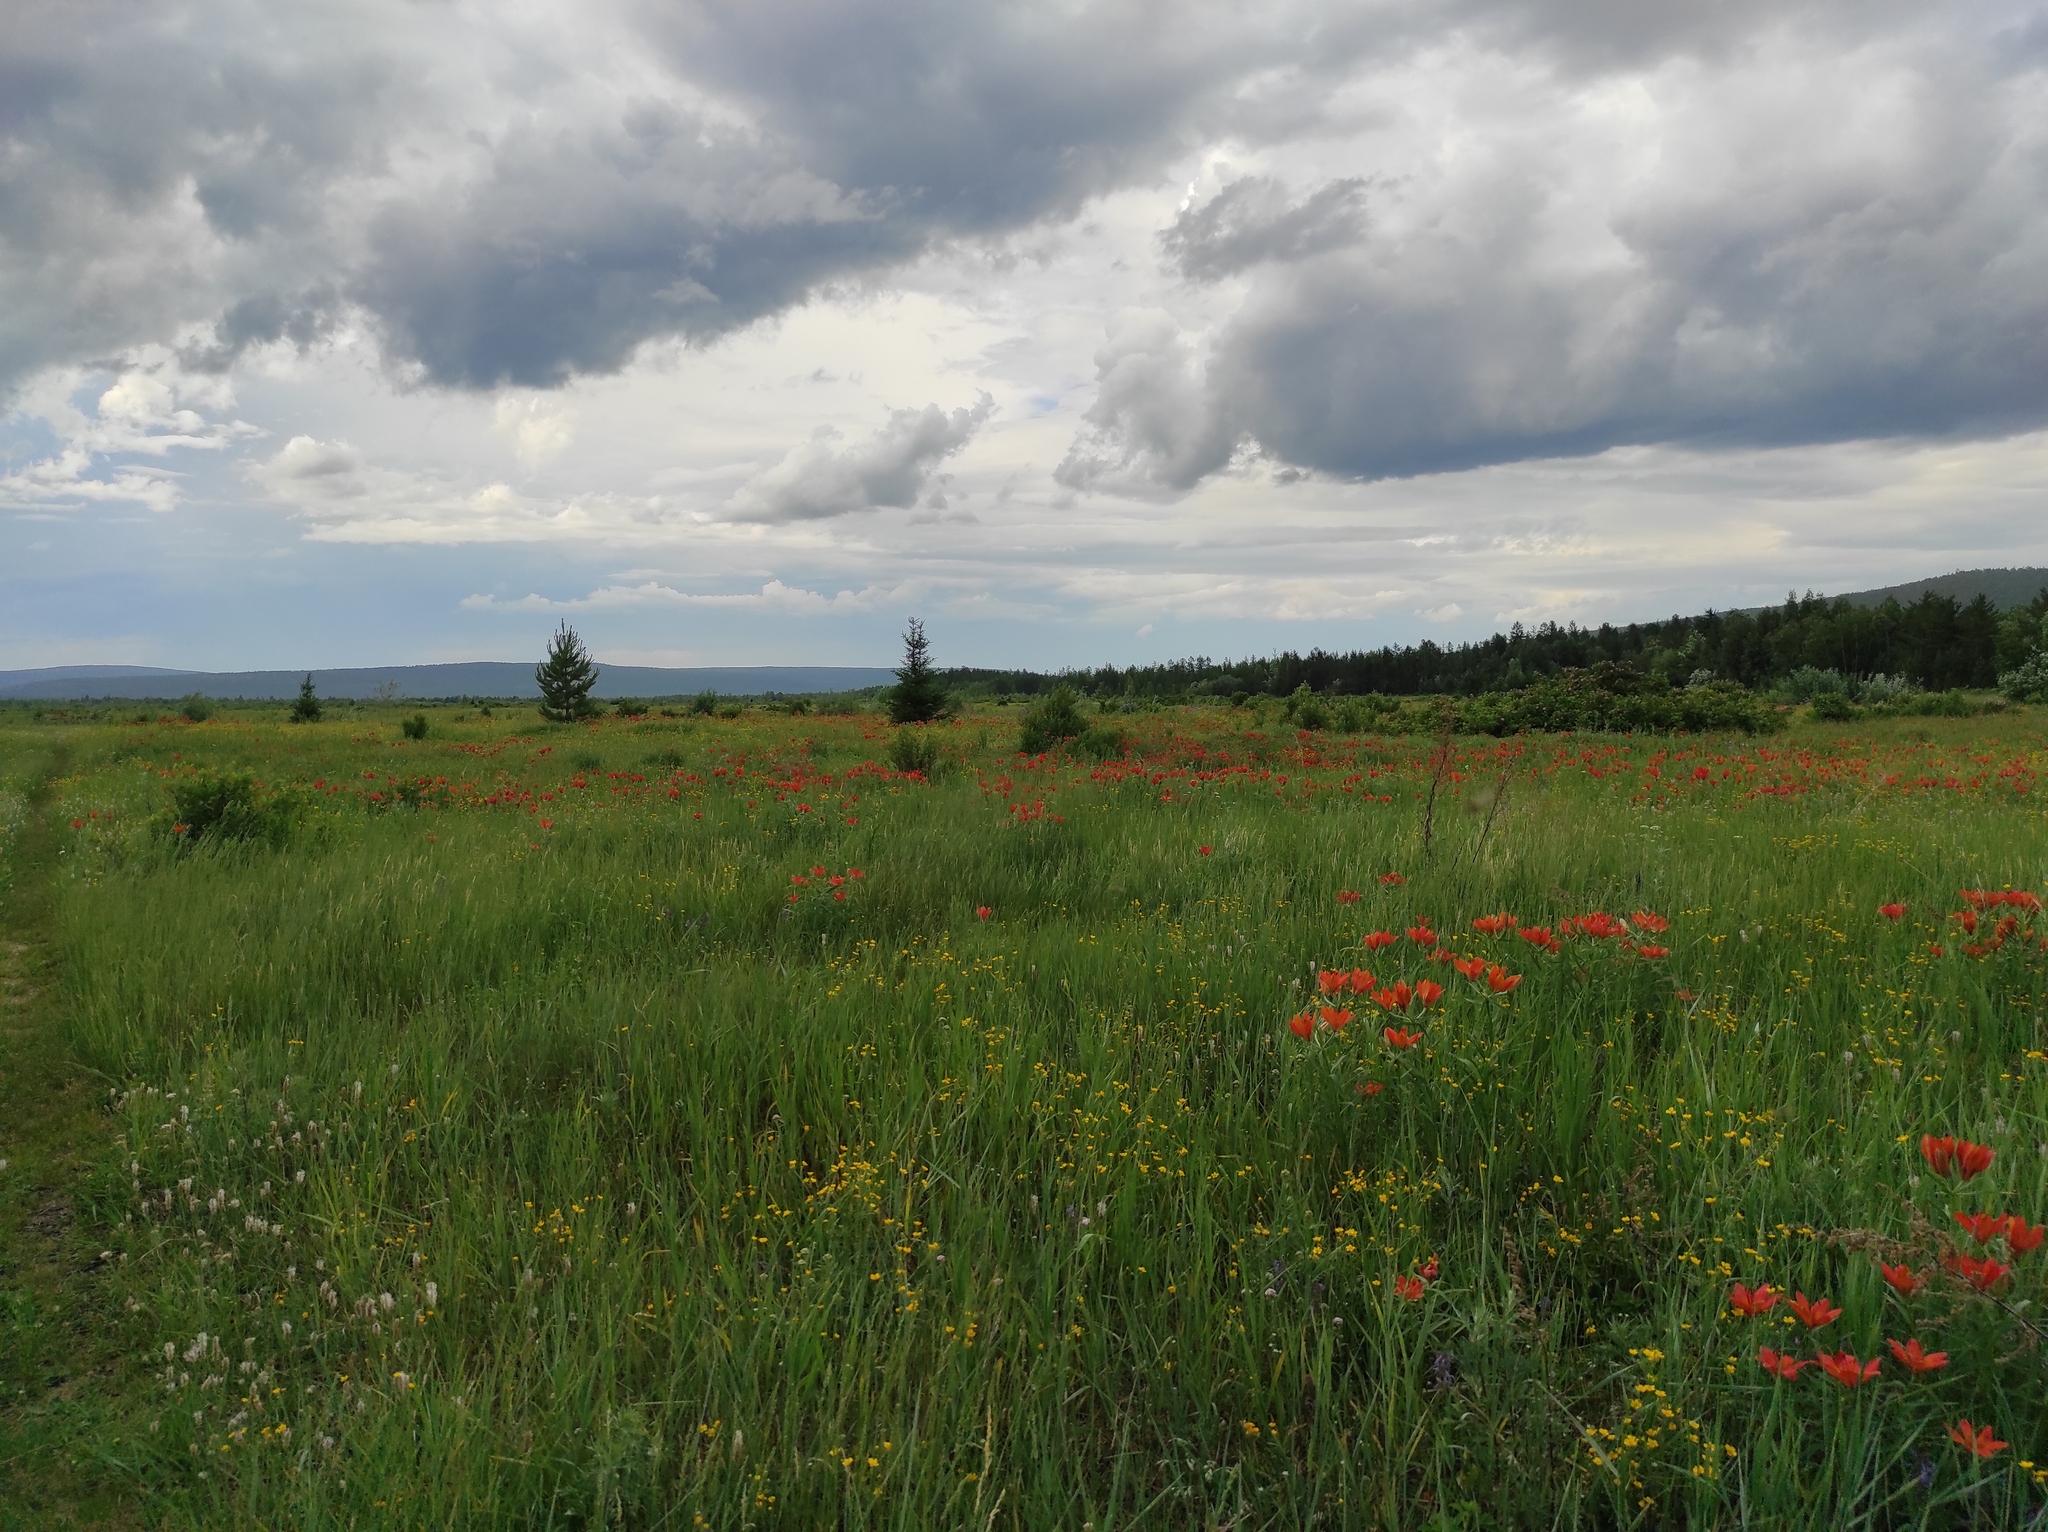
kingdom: Plantae
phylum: Tracheophyta
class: Magnoliopsida
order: Lamiales
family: Plantaginaceae
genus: Plantago
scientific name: Plantago media
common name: Hoary plantain
